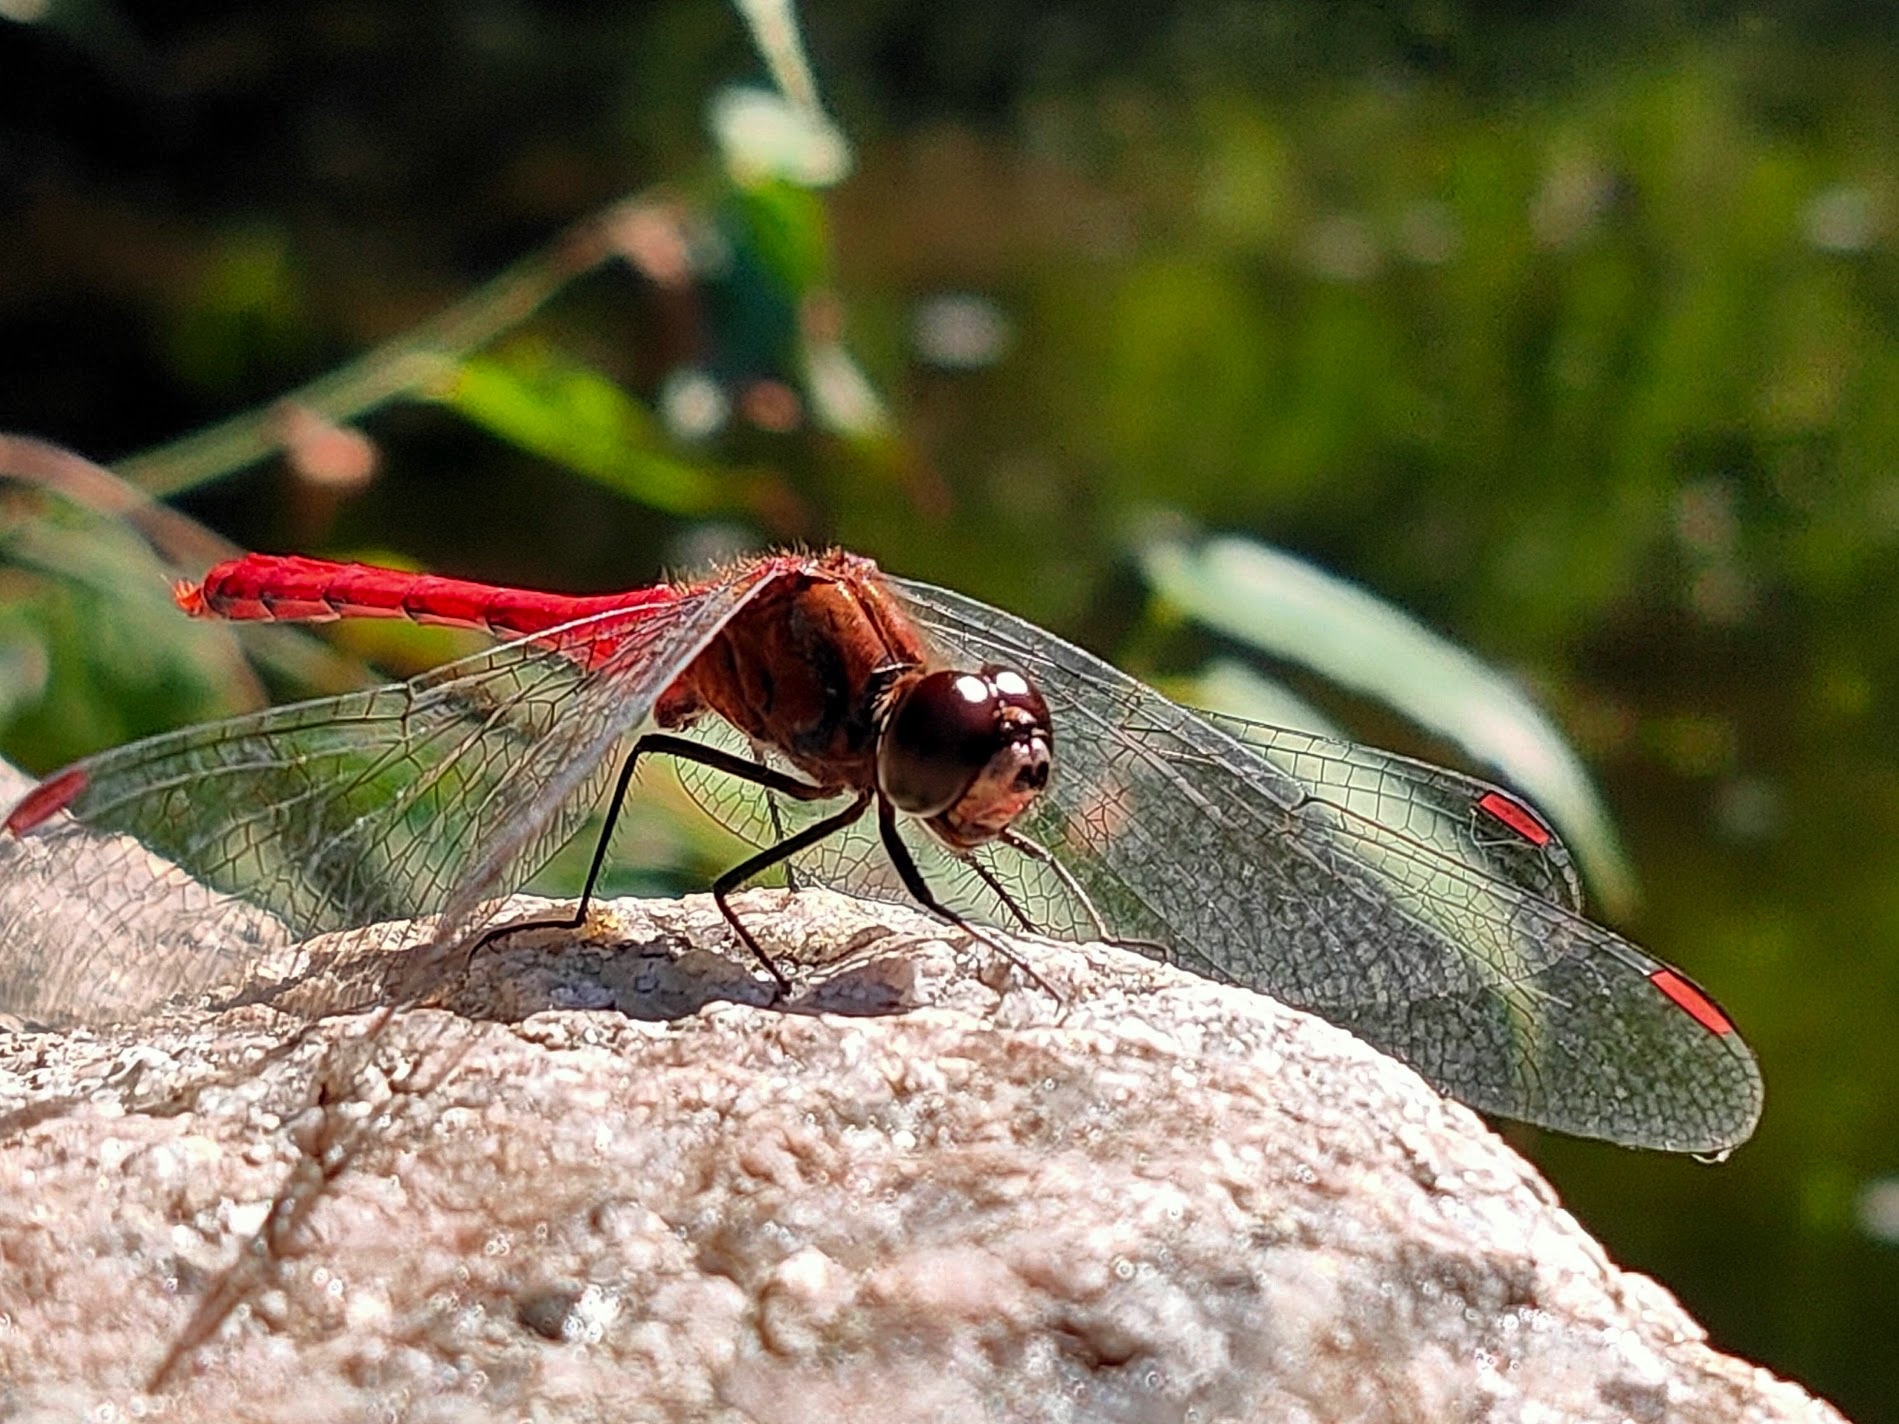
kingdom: Animalia
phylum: Arthropoda
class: Insecta
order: Odonata
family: Libellulidae
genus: Sympetrum
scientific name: Sympetrum eroticum
